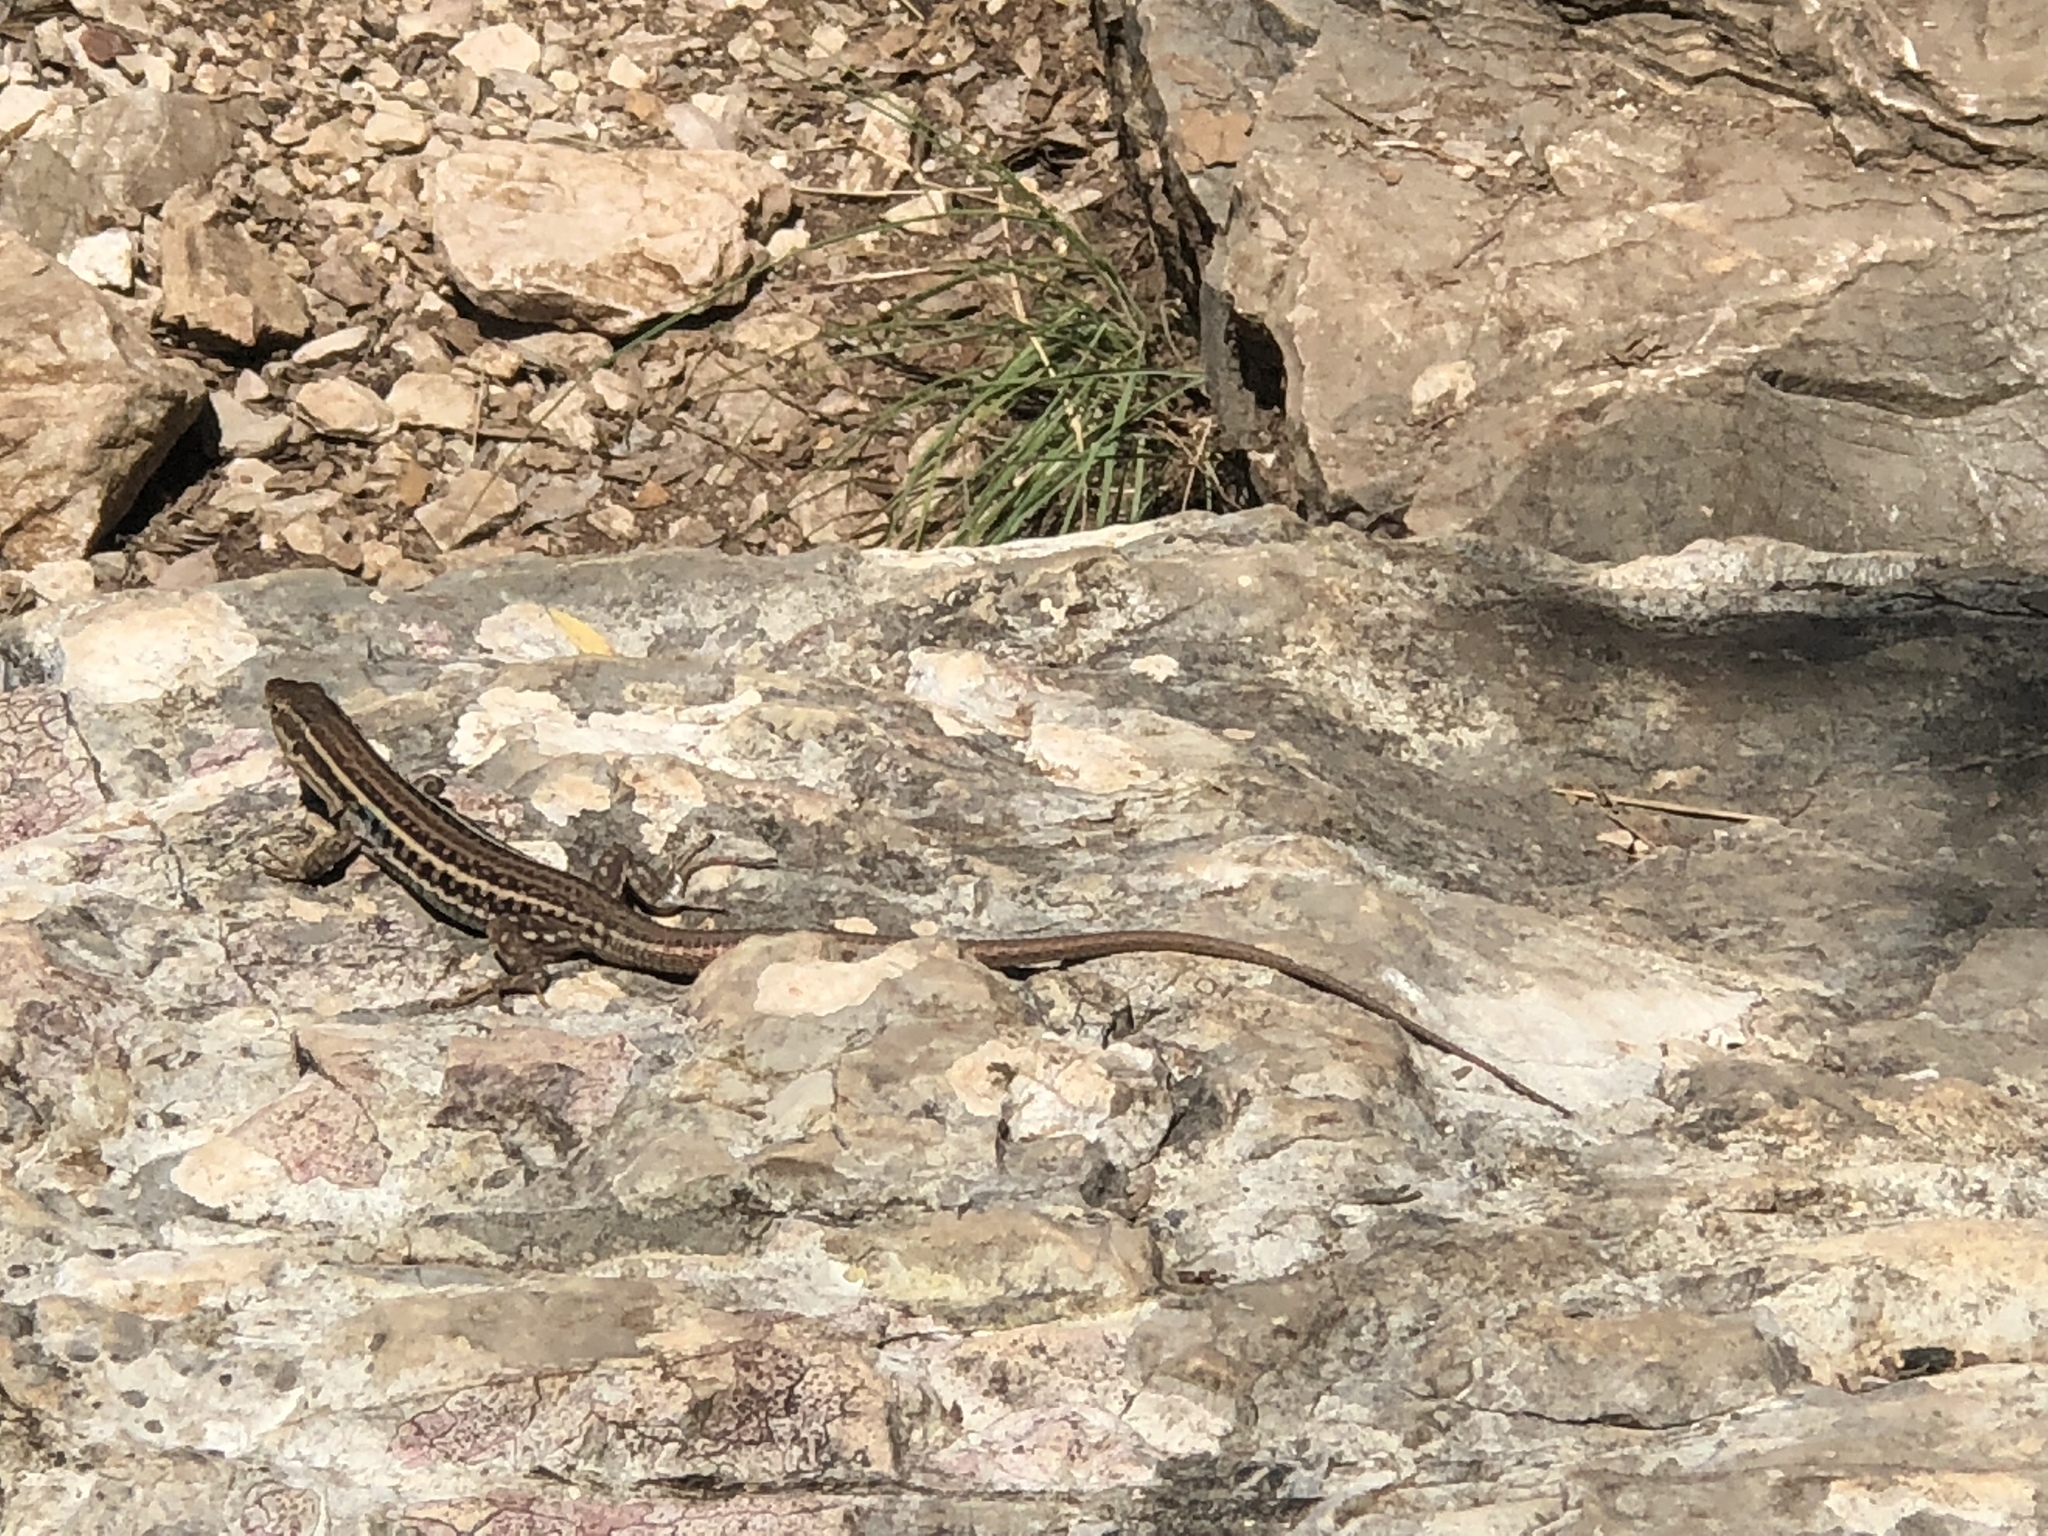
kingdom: Animalia
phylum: Chordata
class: Squamata
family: Lacertidae
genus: Podarcis
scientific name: Podarcis peloponnesiacus
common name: Peloponnese wall lizard
